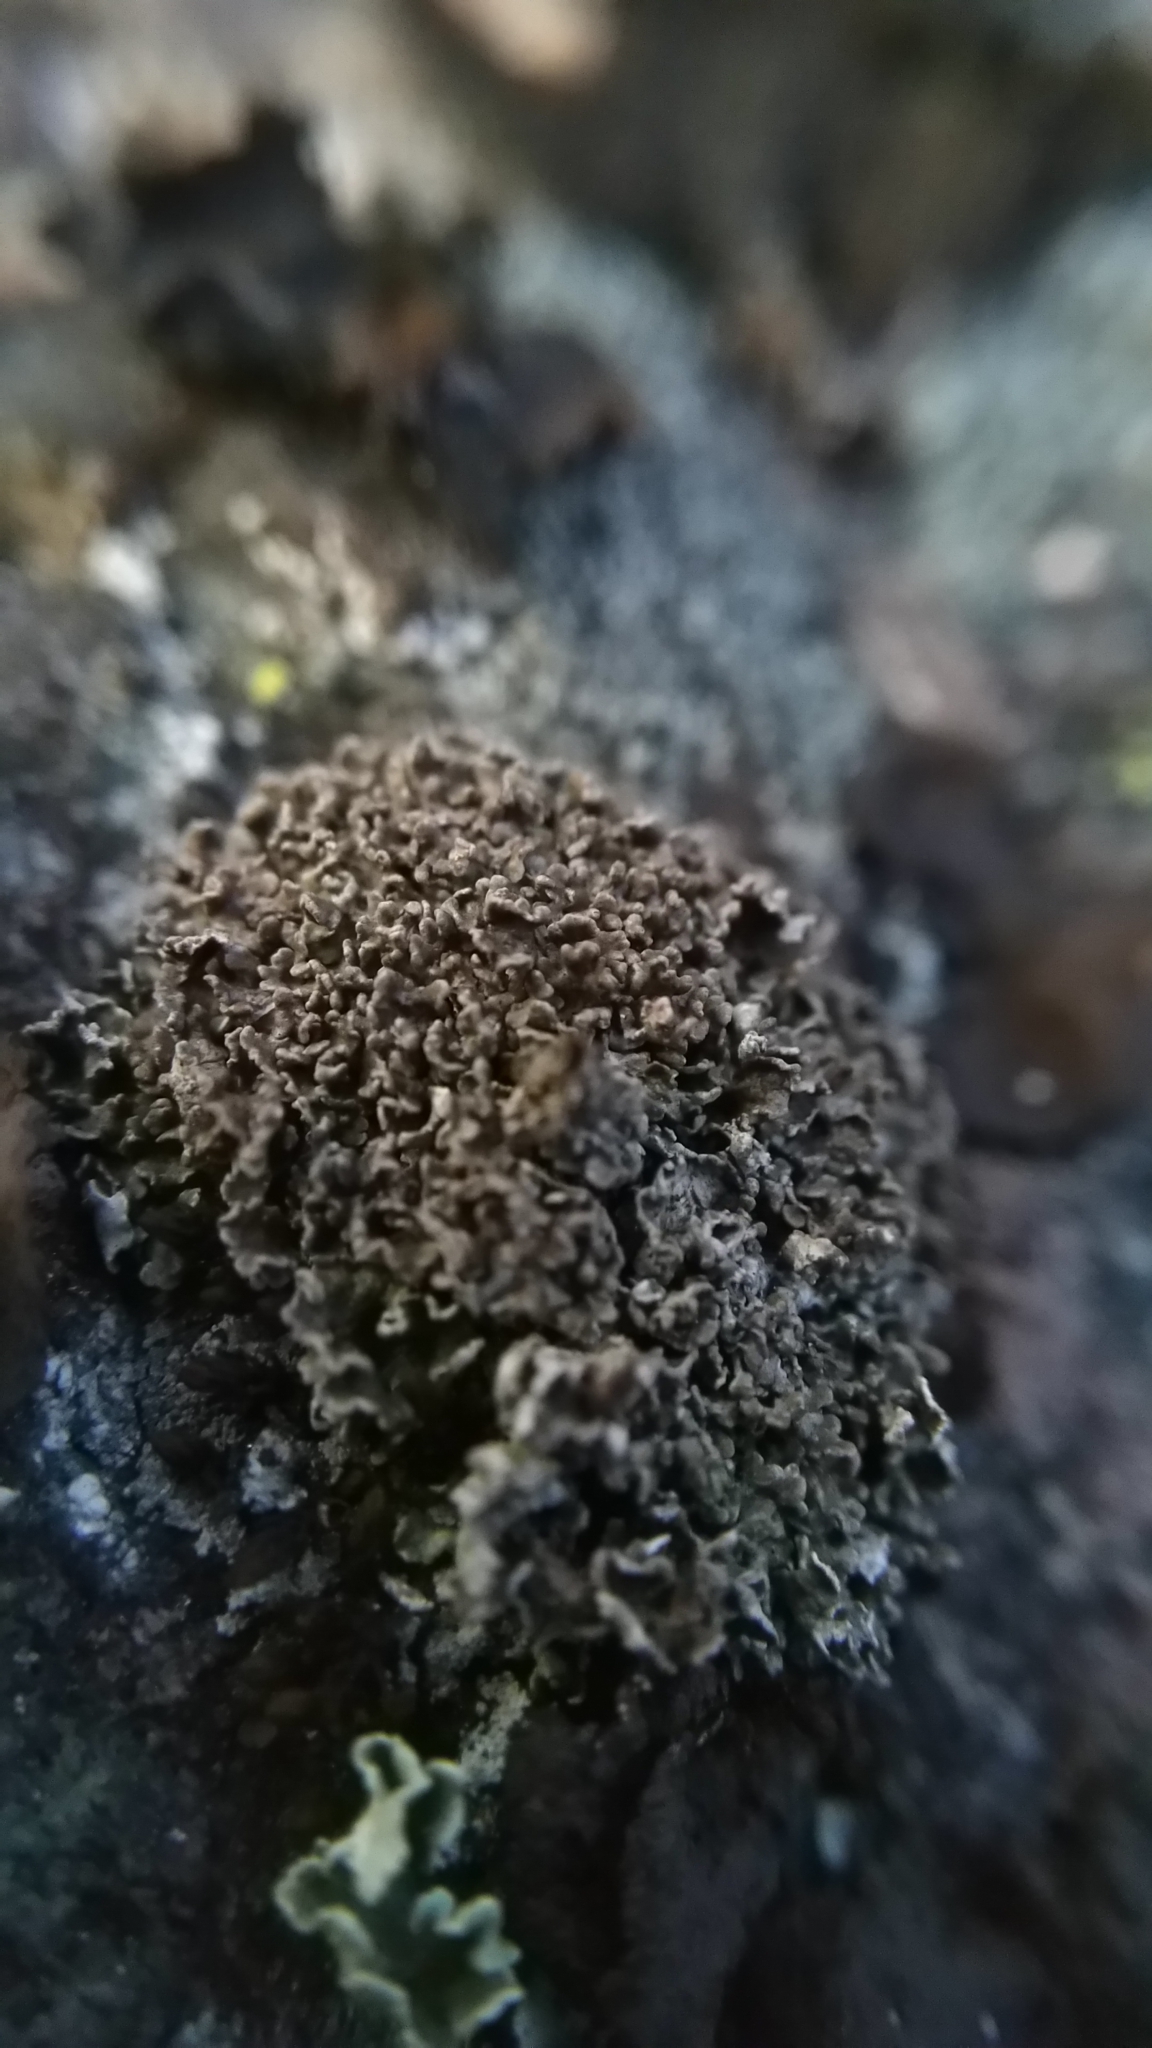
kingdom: Fungi
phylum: Ascomycota
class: Lecanoromycetes
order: Lecanorales
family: Cladoniaceae
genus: Cladonia
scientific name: Cladonia
